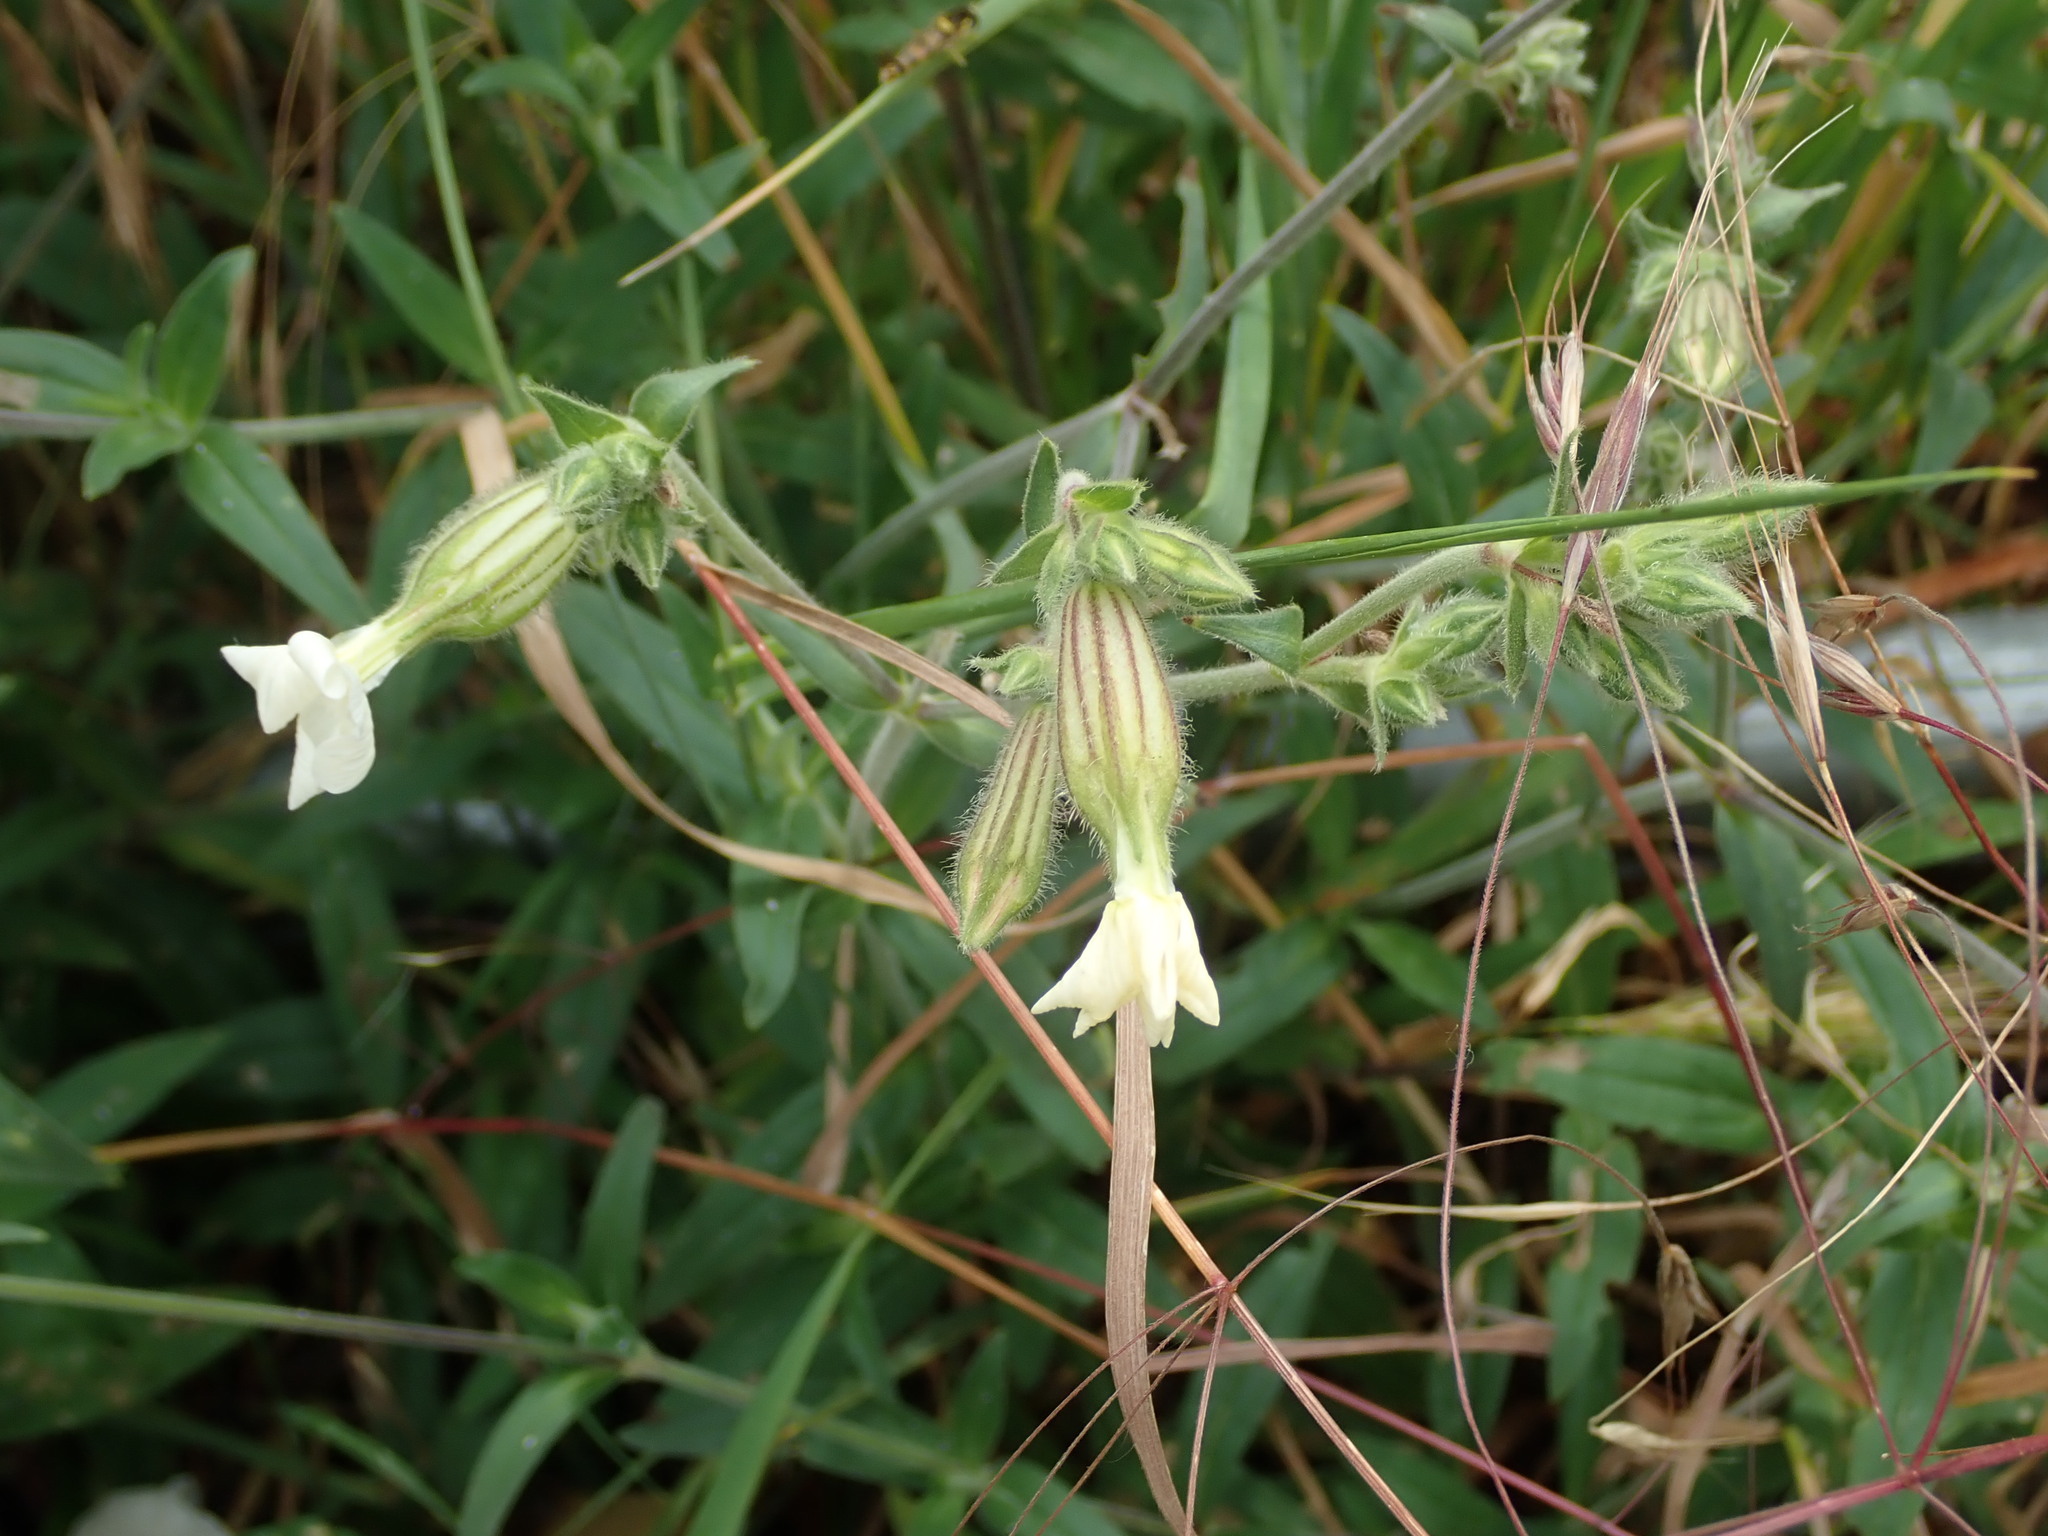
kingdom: Plantae
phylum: Tracheophyta
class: Magnoliopsida
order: Caryophyllales
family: Caryophyllaceae
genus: Silene
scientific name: Silene latifolia
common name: White campion
